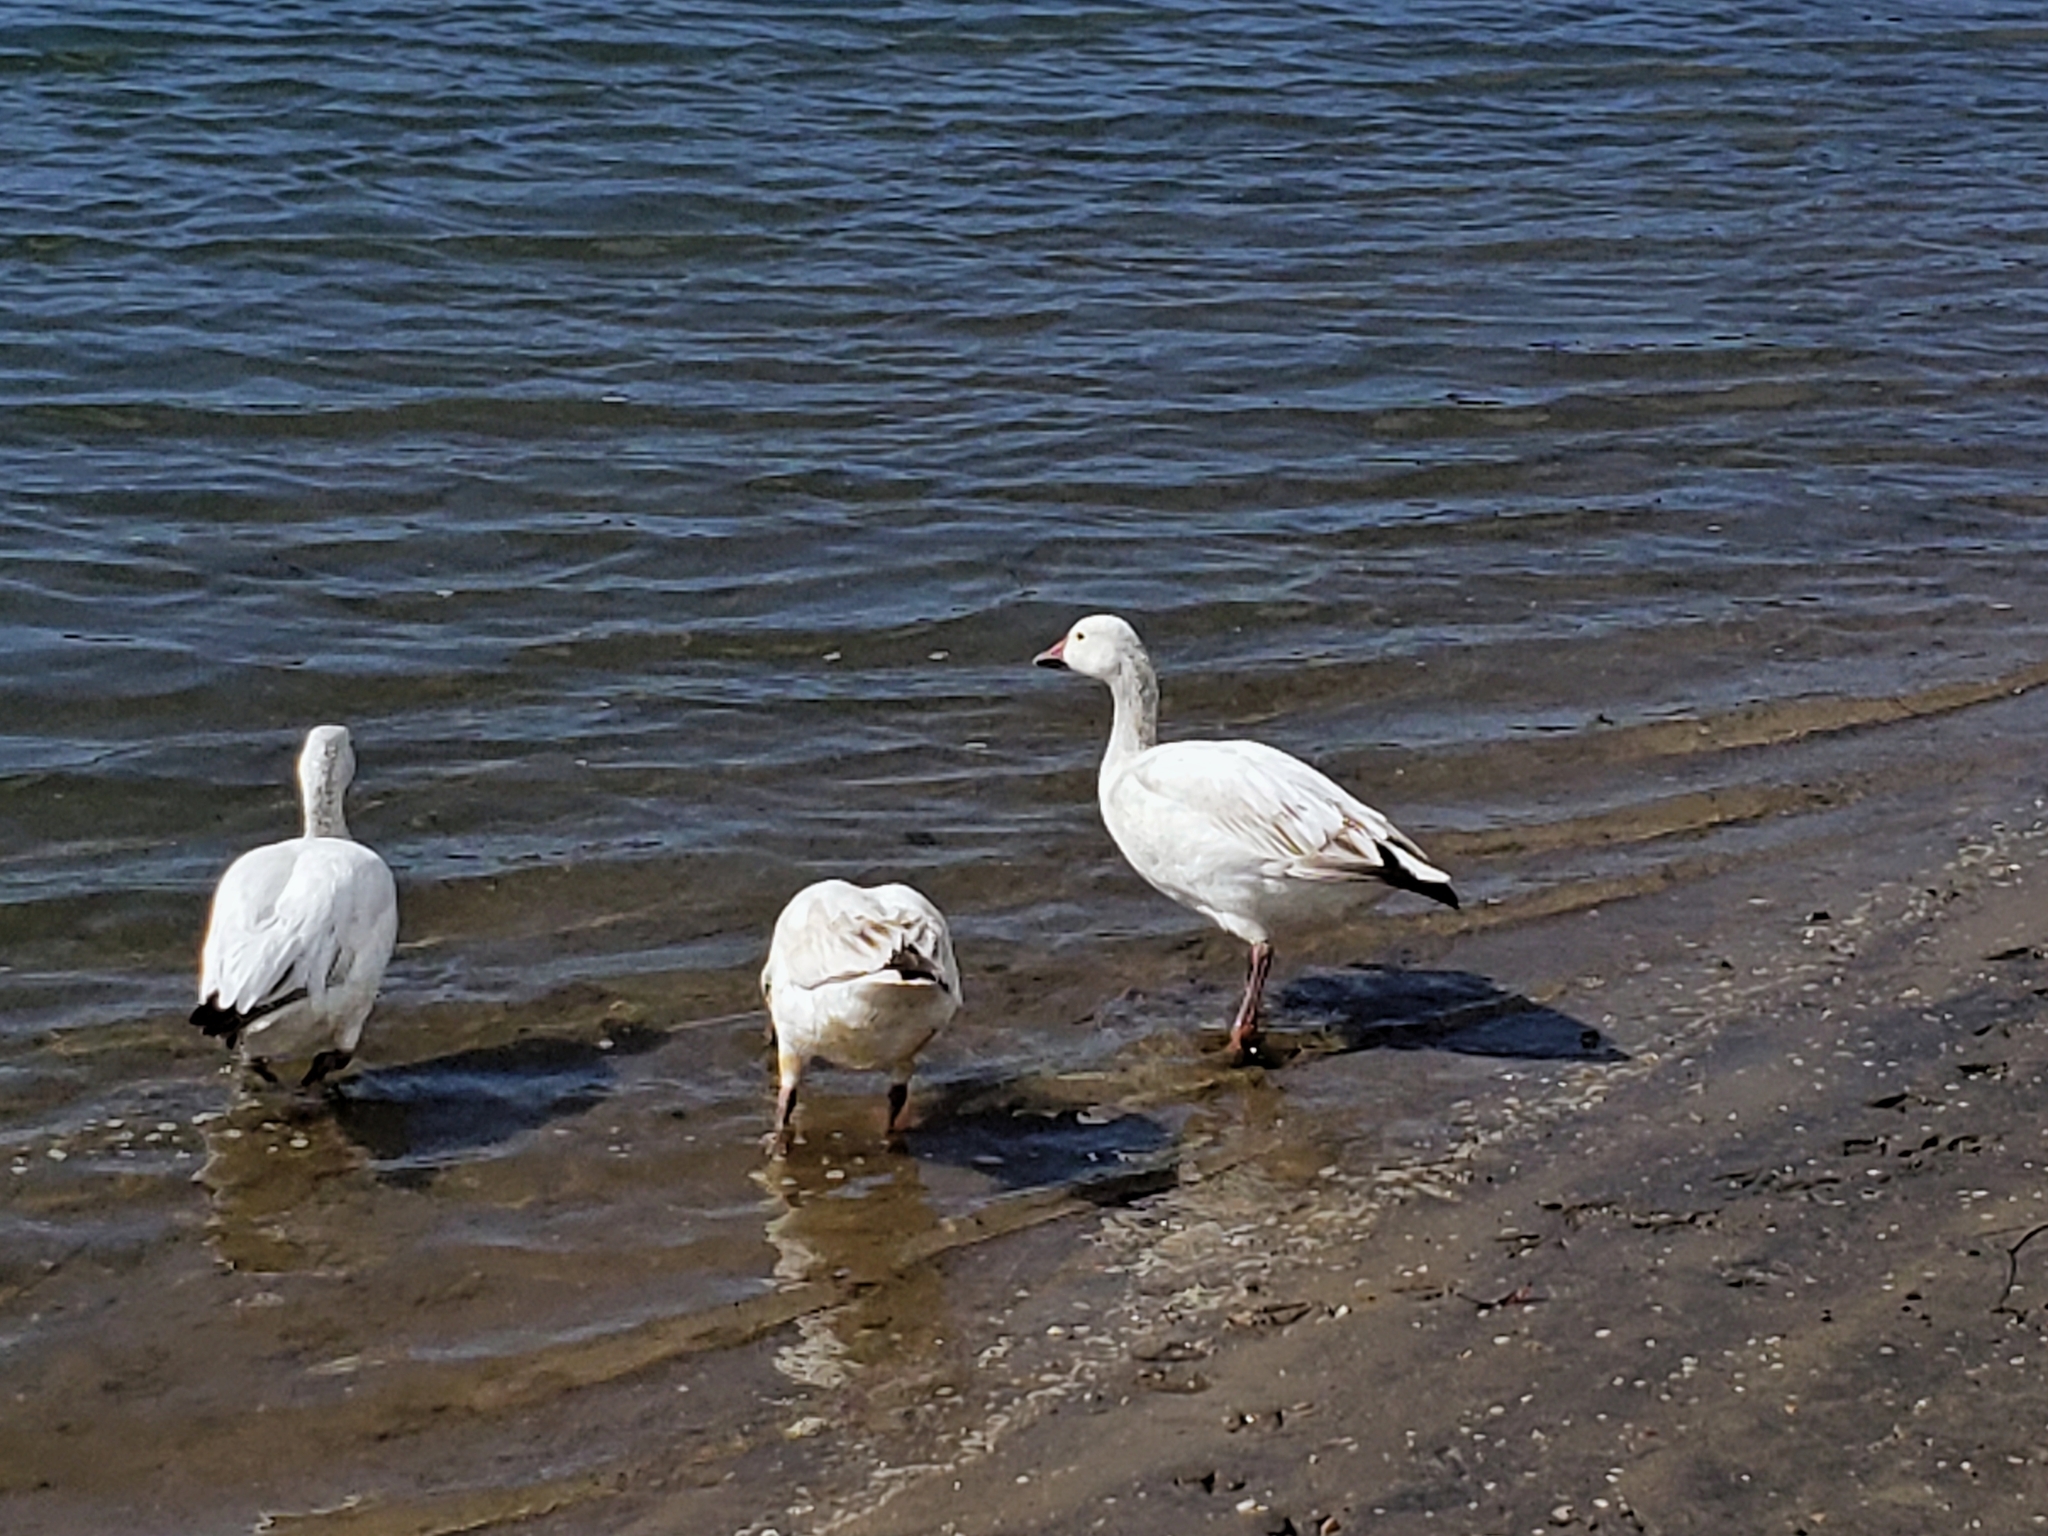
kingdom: Animalia
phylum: Chordata
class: Aves
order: Anseriformes
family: Anatidae
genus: Anser
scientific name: Anser caerulescens
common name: Snow goose
